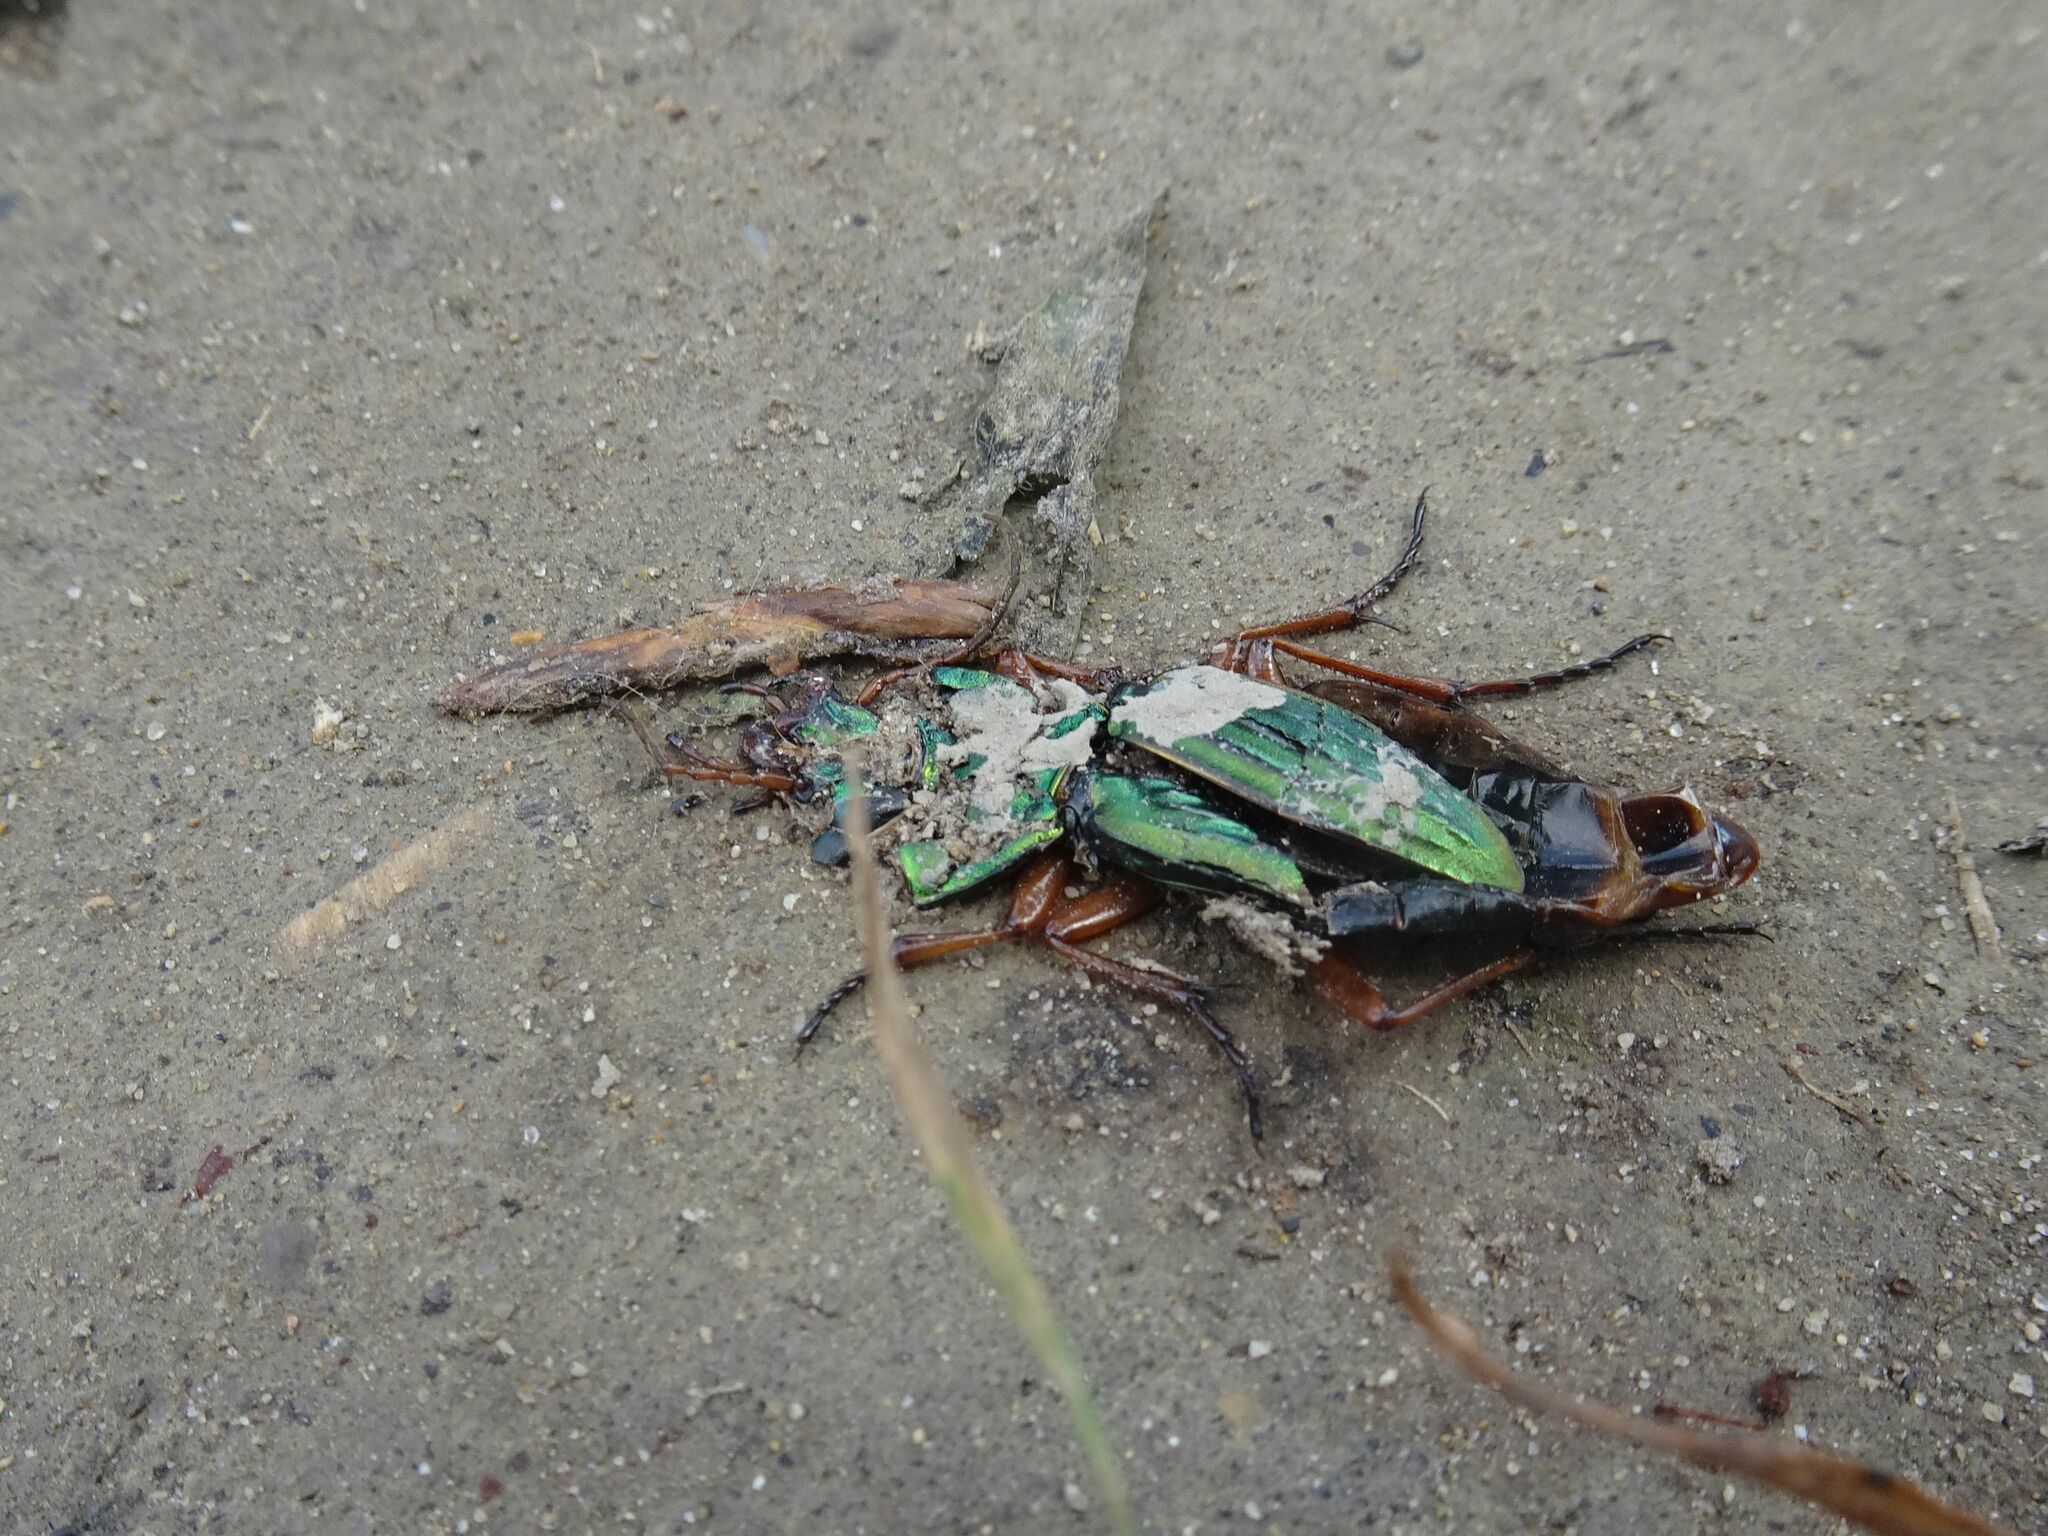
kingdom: Animalia
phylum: Arthropoda
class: Insecta
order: Coleoptera
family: Carabidae
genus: Carabus
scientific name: Carabus auratus
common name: Golden ground beetle
